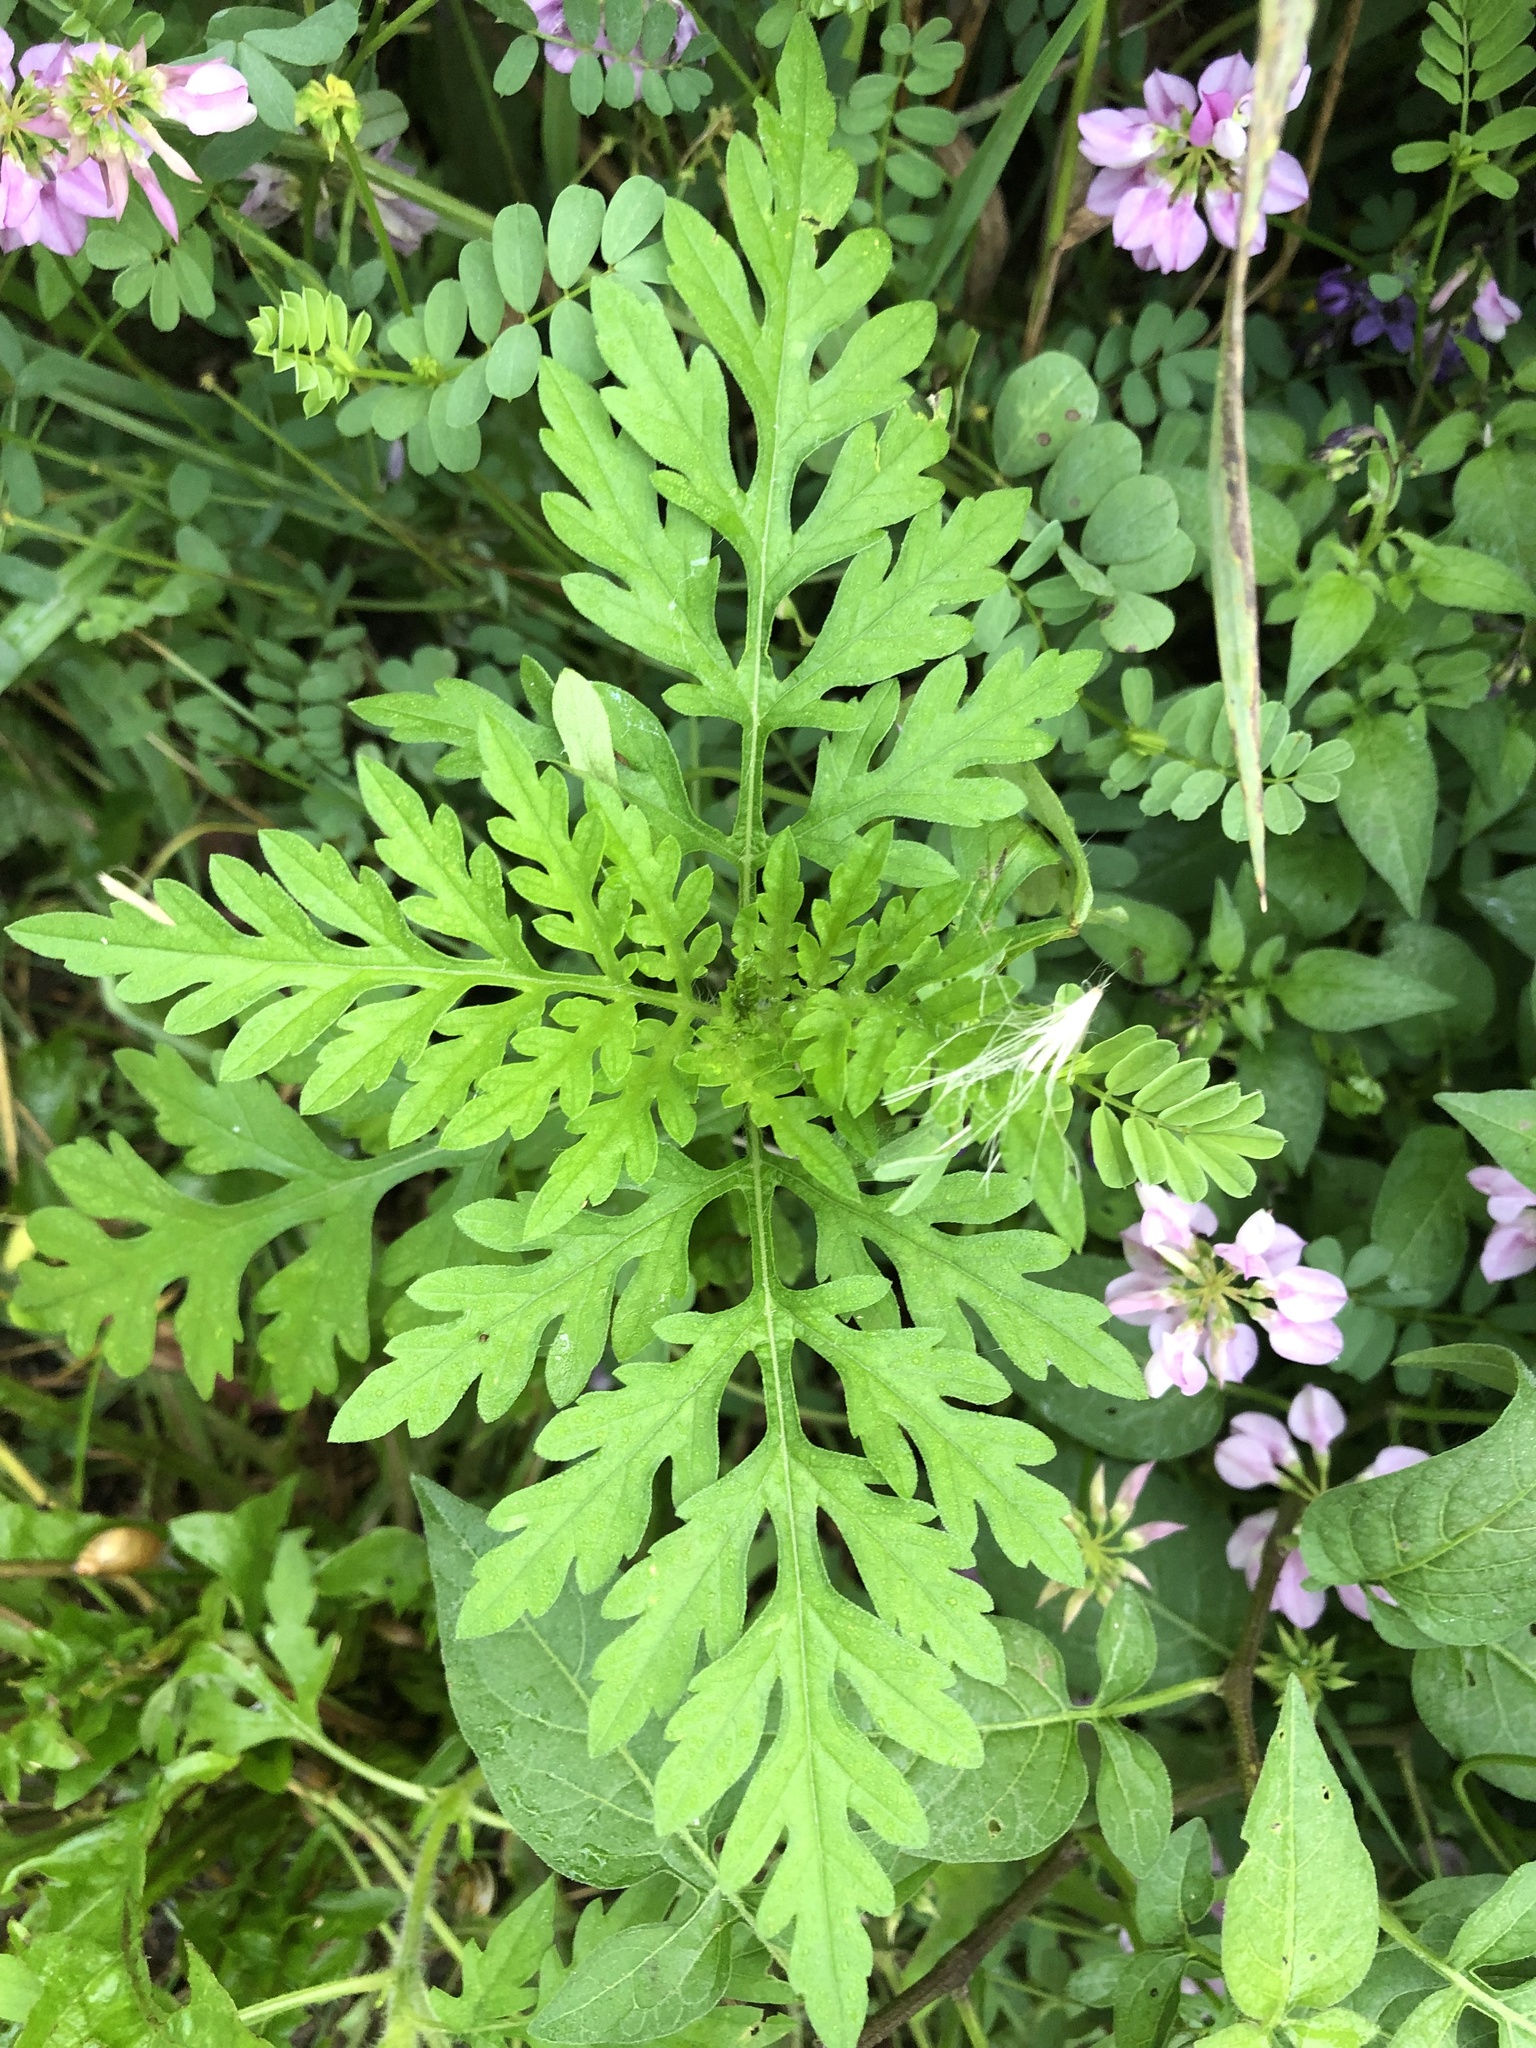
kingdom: Plantae
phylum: Tracheophyta
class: Magnoliopsida
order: Asterales
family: Asteraceae
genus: Ambrosia
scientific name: Ambrosia artemisiifolia
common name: Annual ragweed
